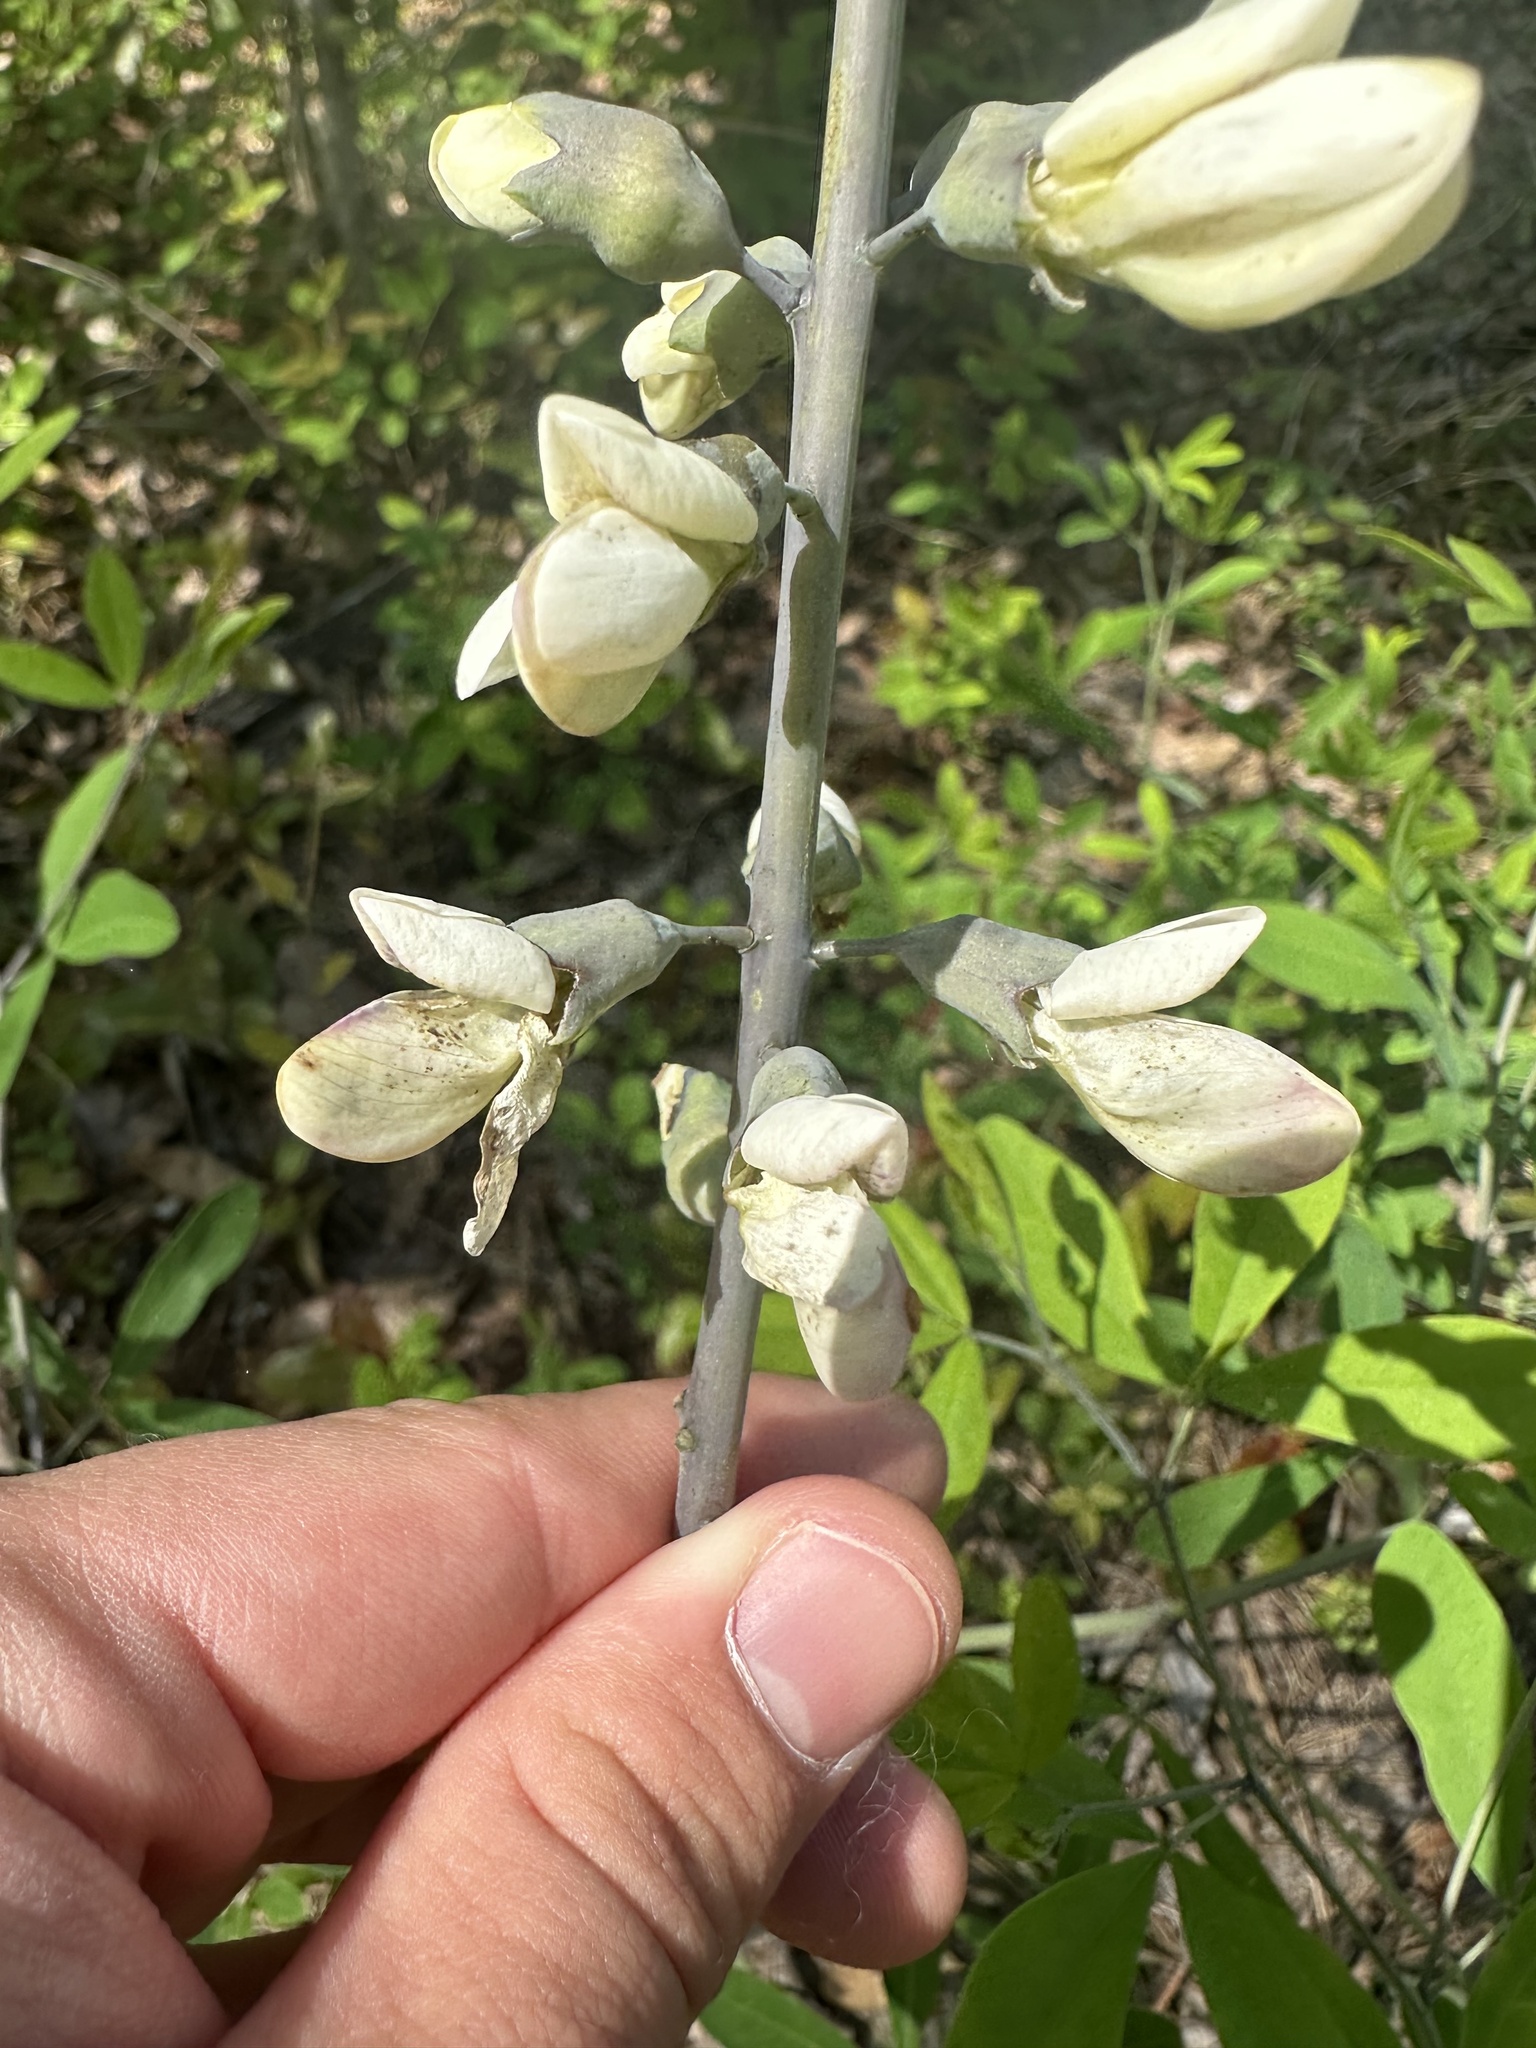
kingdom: Plantae
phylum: Tracheophyta
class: Magnoliopsida
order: Fabales
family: Fabaceae
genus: Baptisia
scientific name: Baptisia alba
